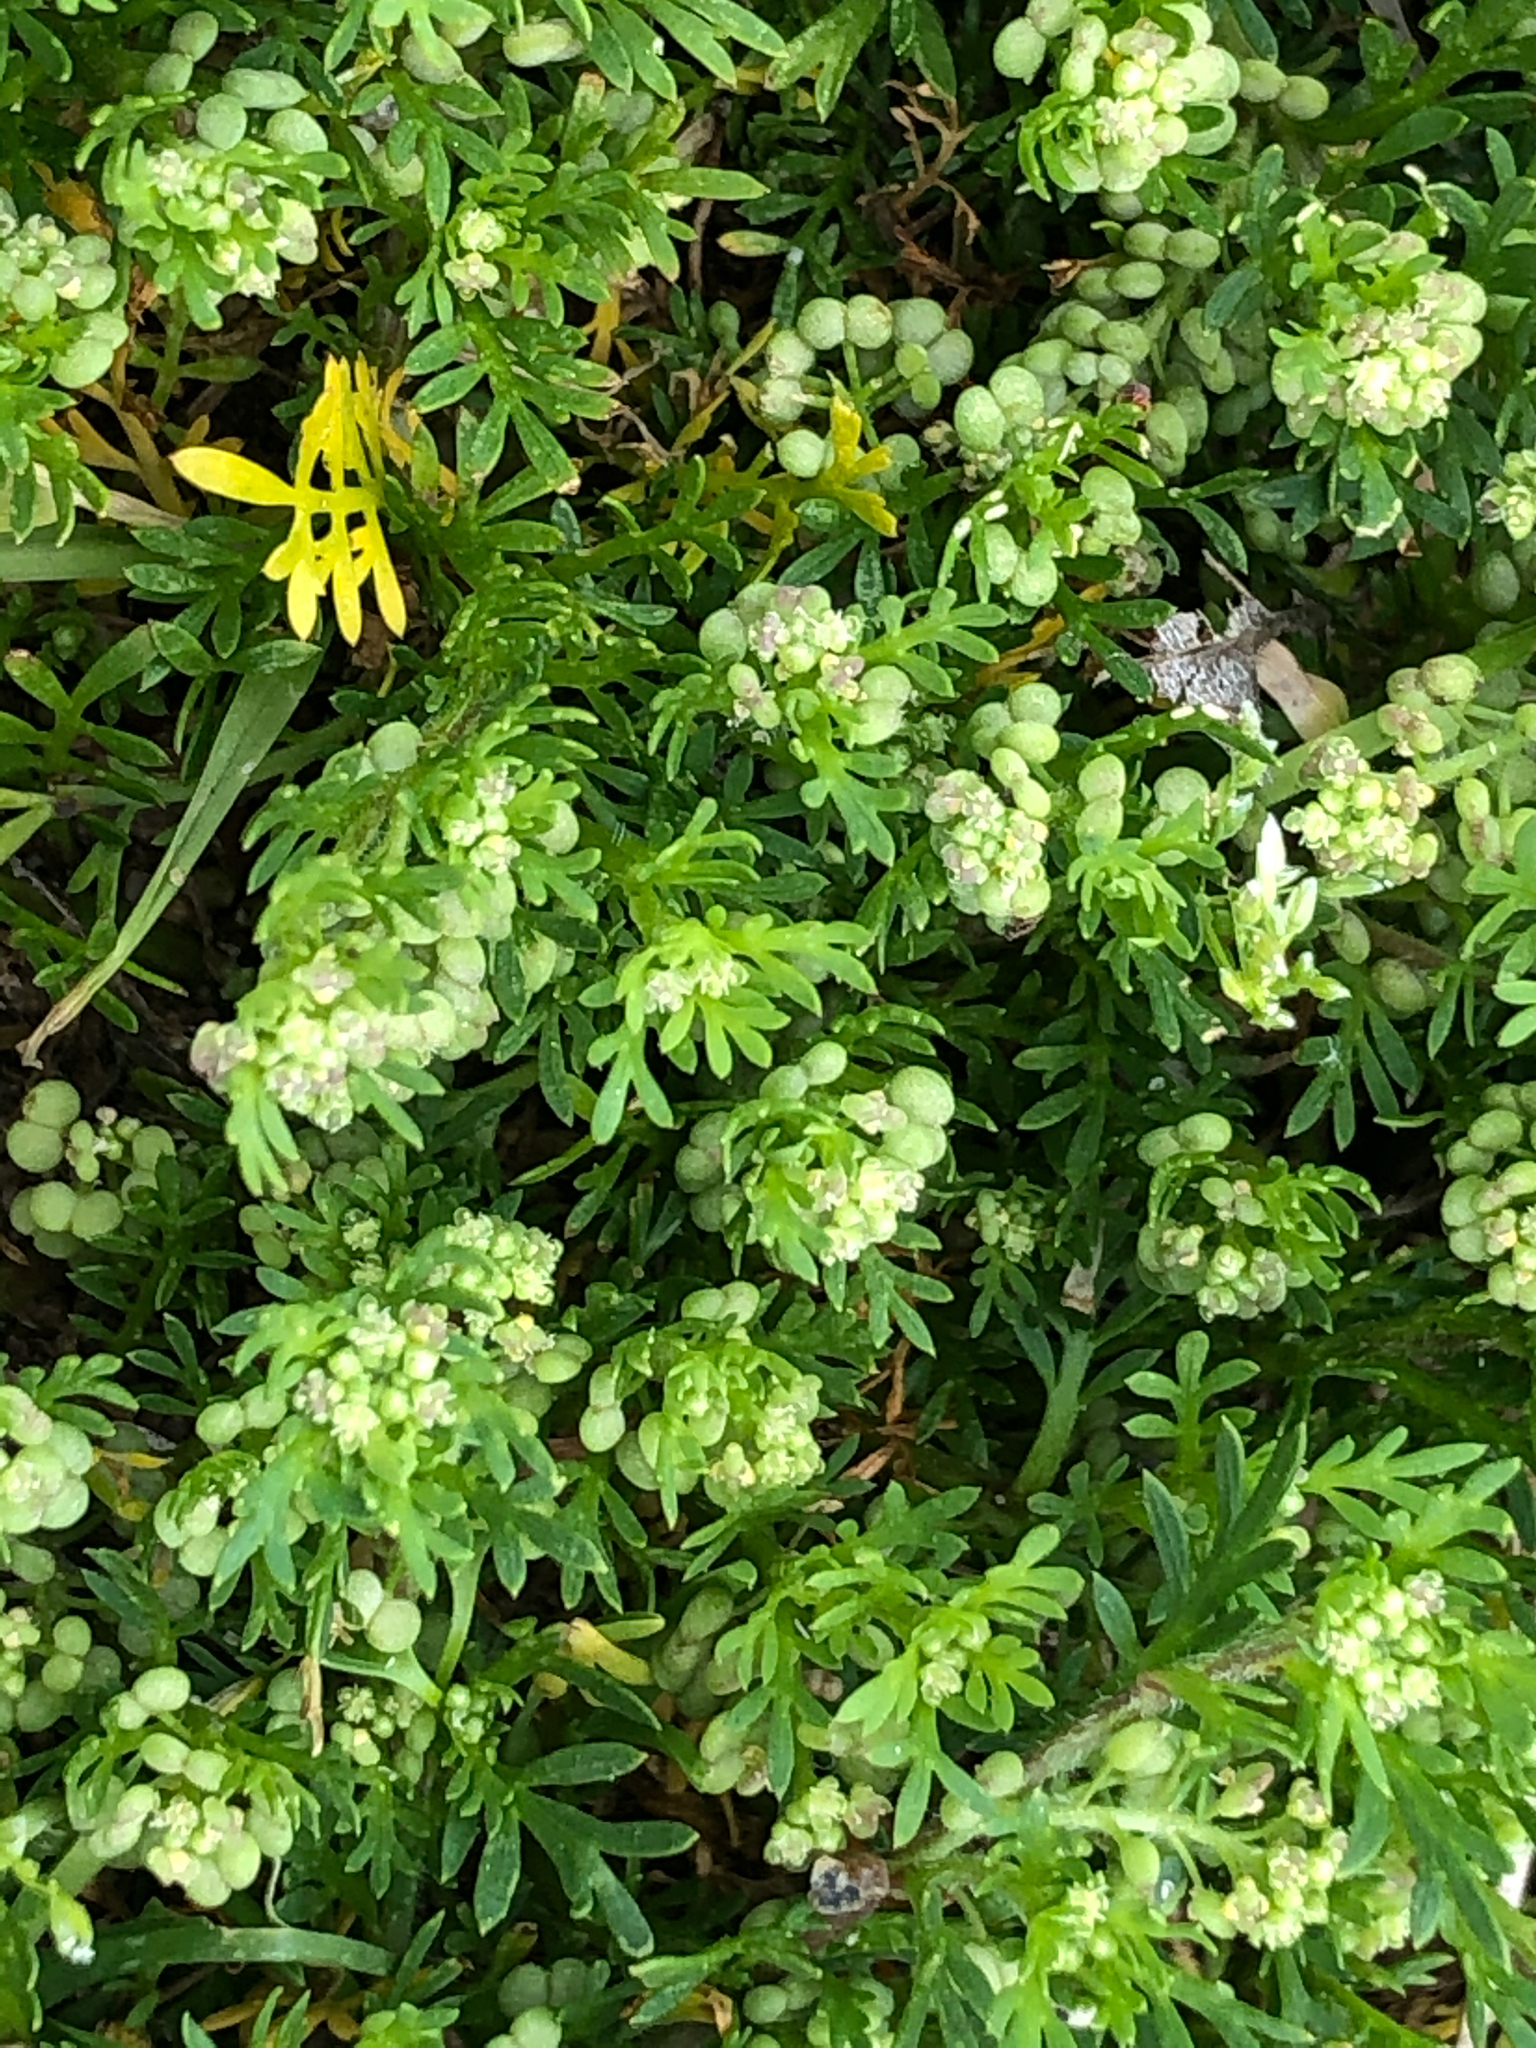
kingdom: Plantae
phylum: Tracheophyta
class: Magnoliopsida
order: Brassicales
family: Brassicaceae
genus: Lepidium
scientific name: Lepidium didymum
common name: Lesser swinecress
